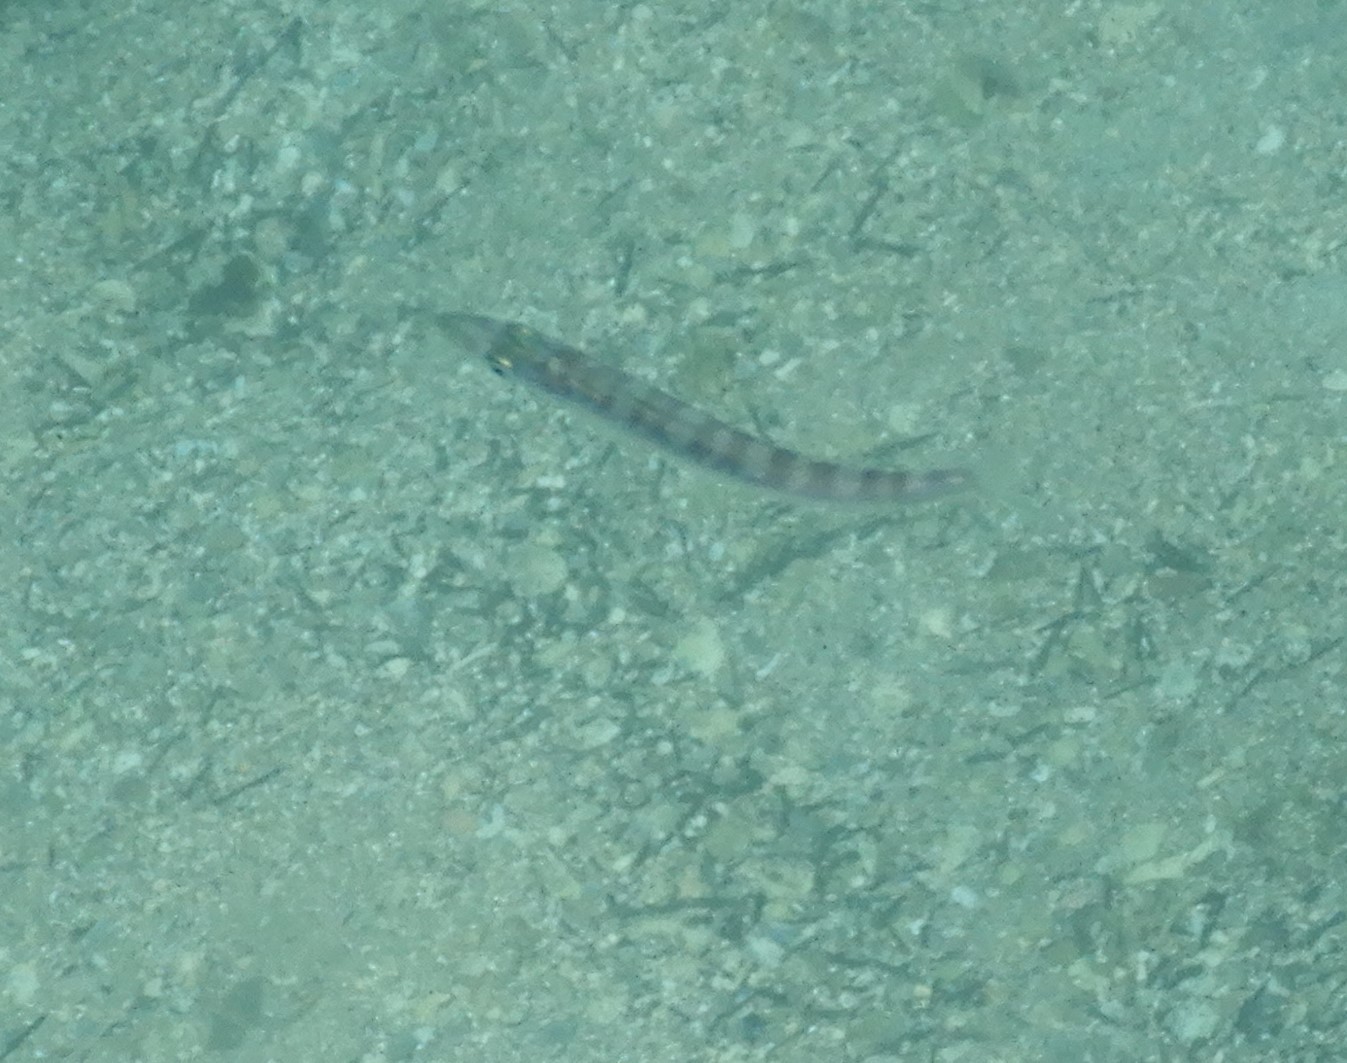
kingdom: Animalia
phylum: Chordata
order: Perciformes
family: Sphyraenidae
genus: Sphyraena
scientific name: Sphyraena obtusata
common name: Obtuse barracuda
